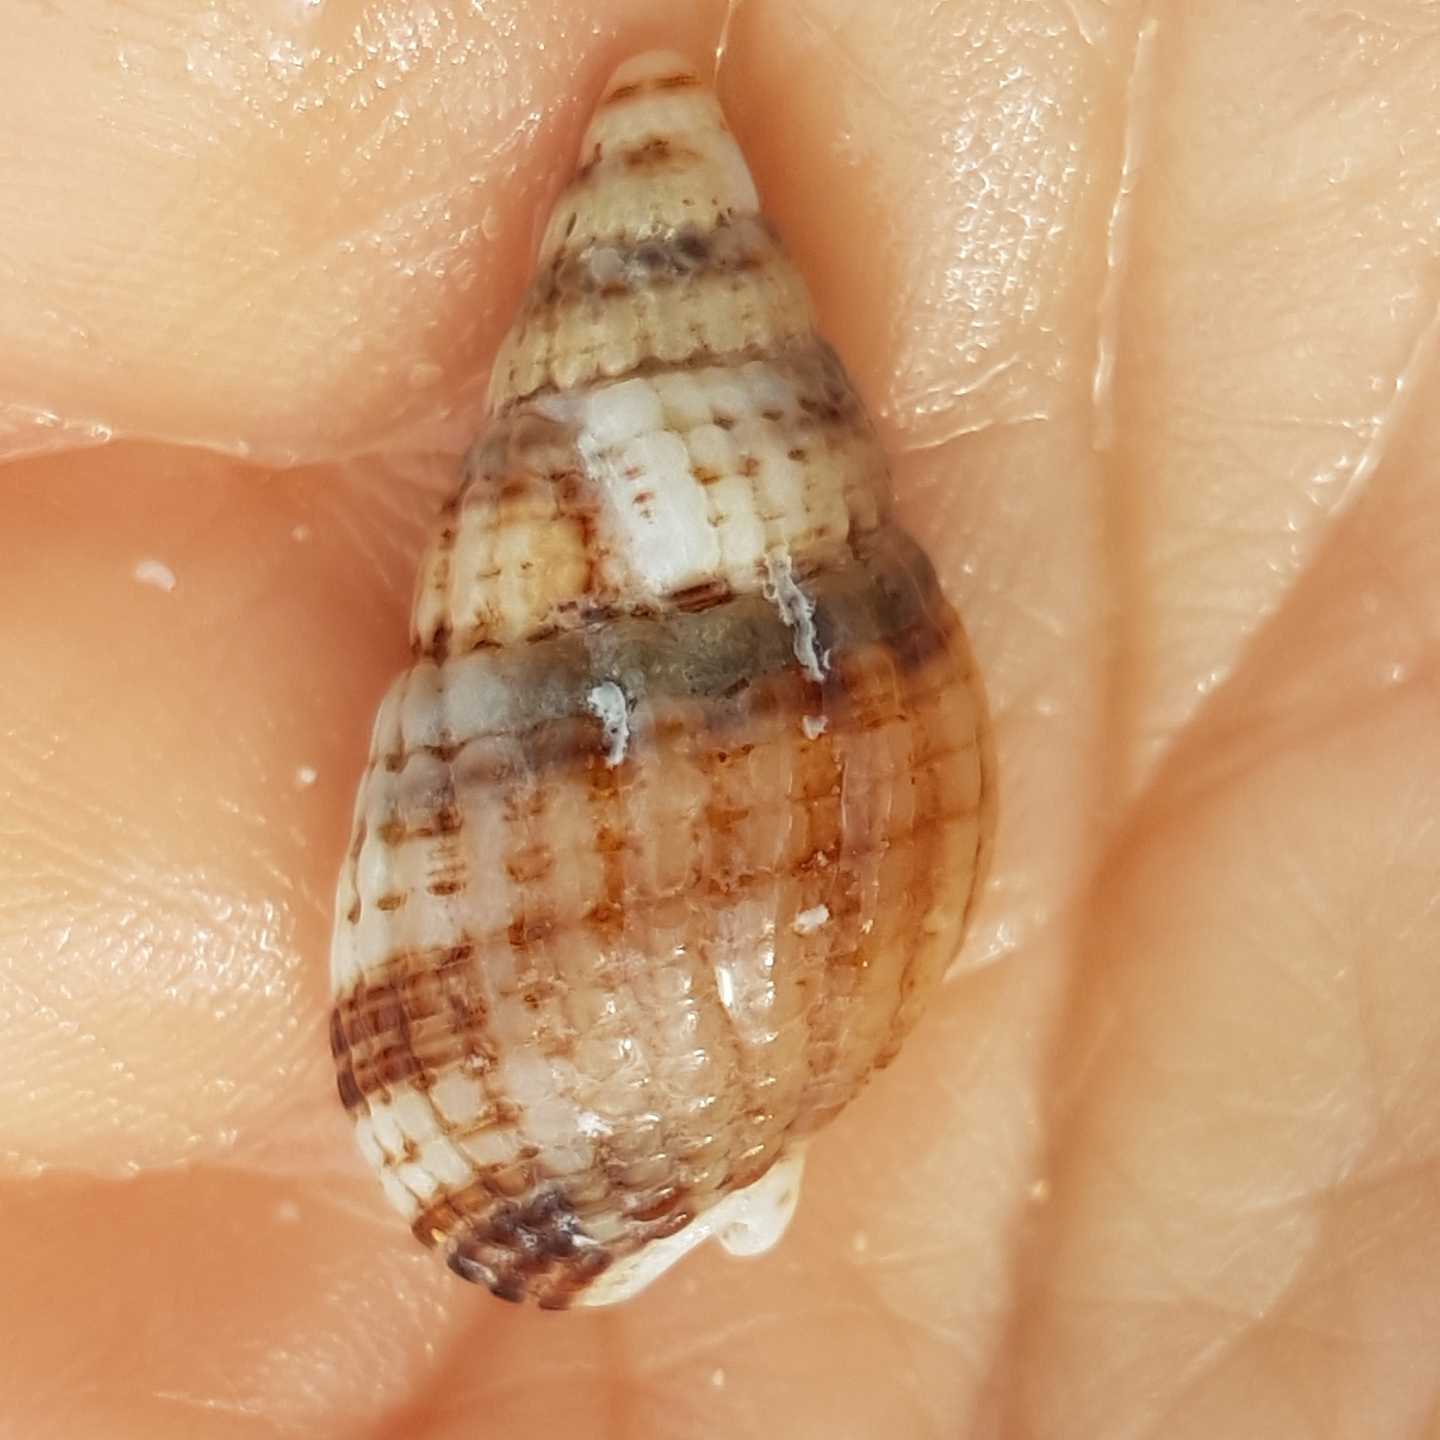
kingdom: Animalia
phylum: Mollusca
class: Gastropoda
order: Neogastropoda
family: Nassariidae
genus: Tritia
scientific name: Tritia reticulata
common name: Netted dog whelk
